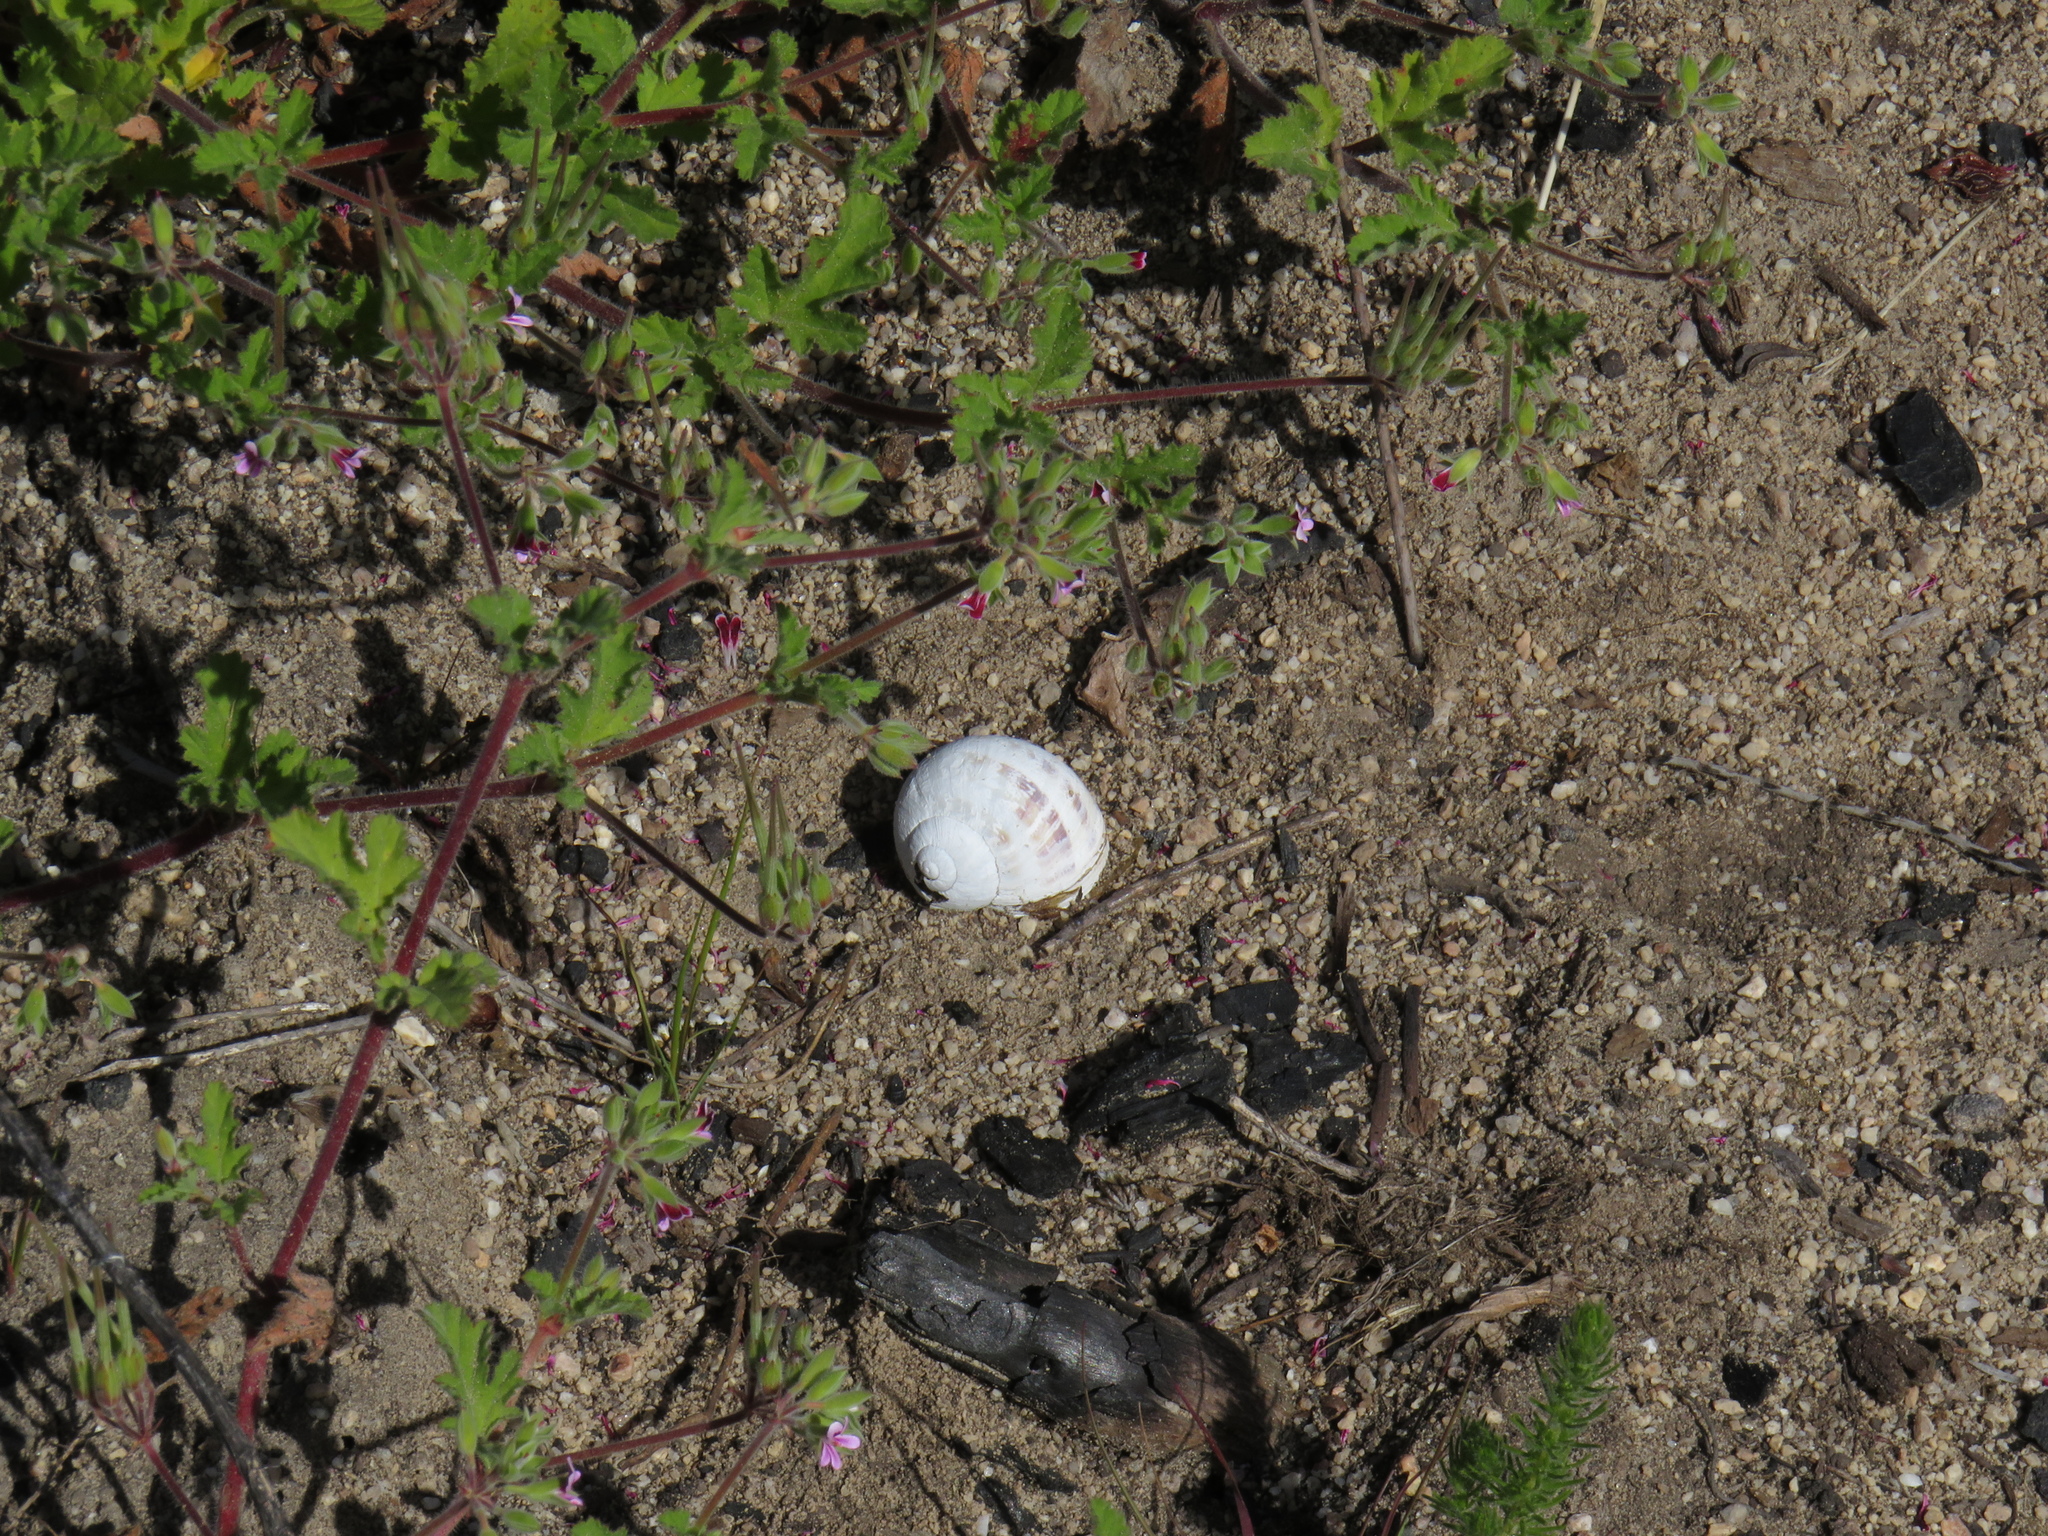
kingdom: Animalia
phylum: Mollusca
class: Gastropoda
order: Stylommatophora
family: Helicidae
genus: Cornu
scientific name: Cornu aspersum
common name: Brown garden snail
